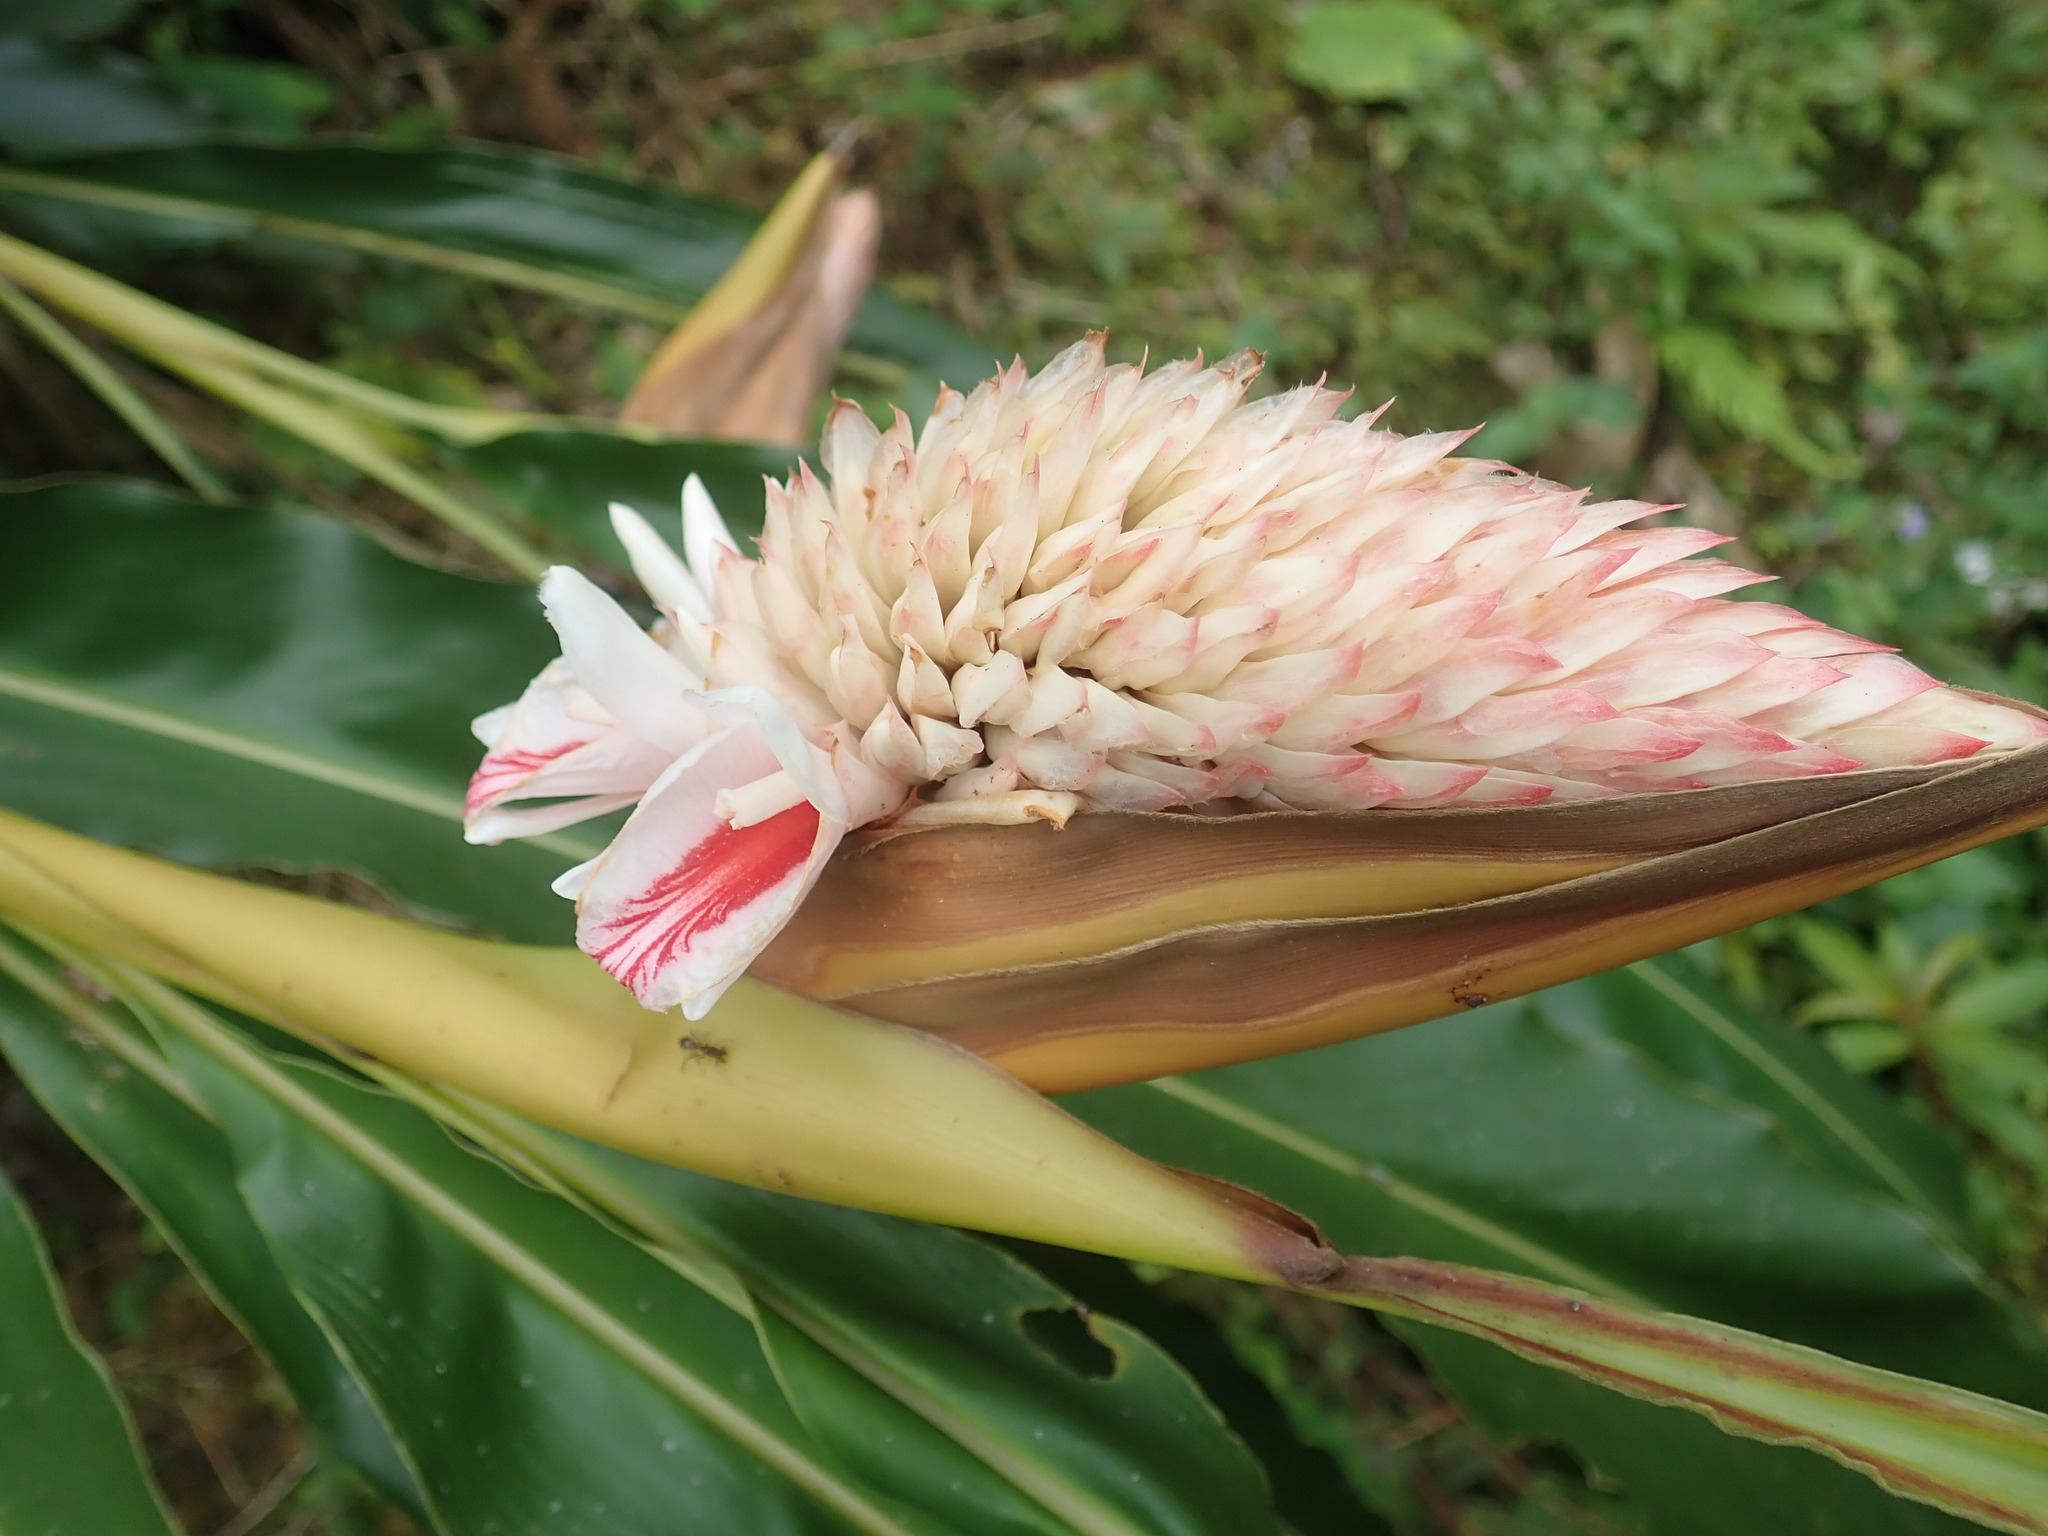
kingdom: Plantae
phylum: Tracheophyta
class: Liliopsida
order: Zingiberales
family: Zingiberaceae
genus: Alpinia
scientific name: Alpinia sessiliflora
